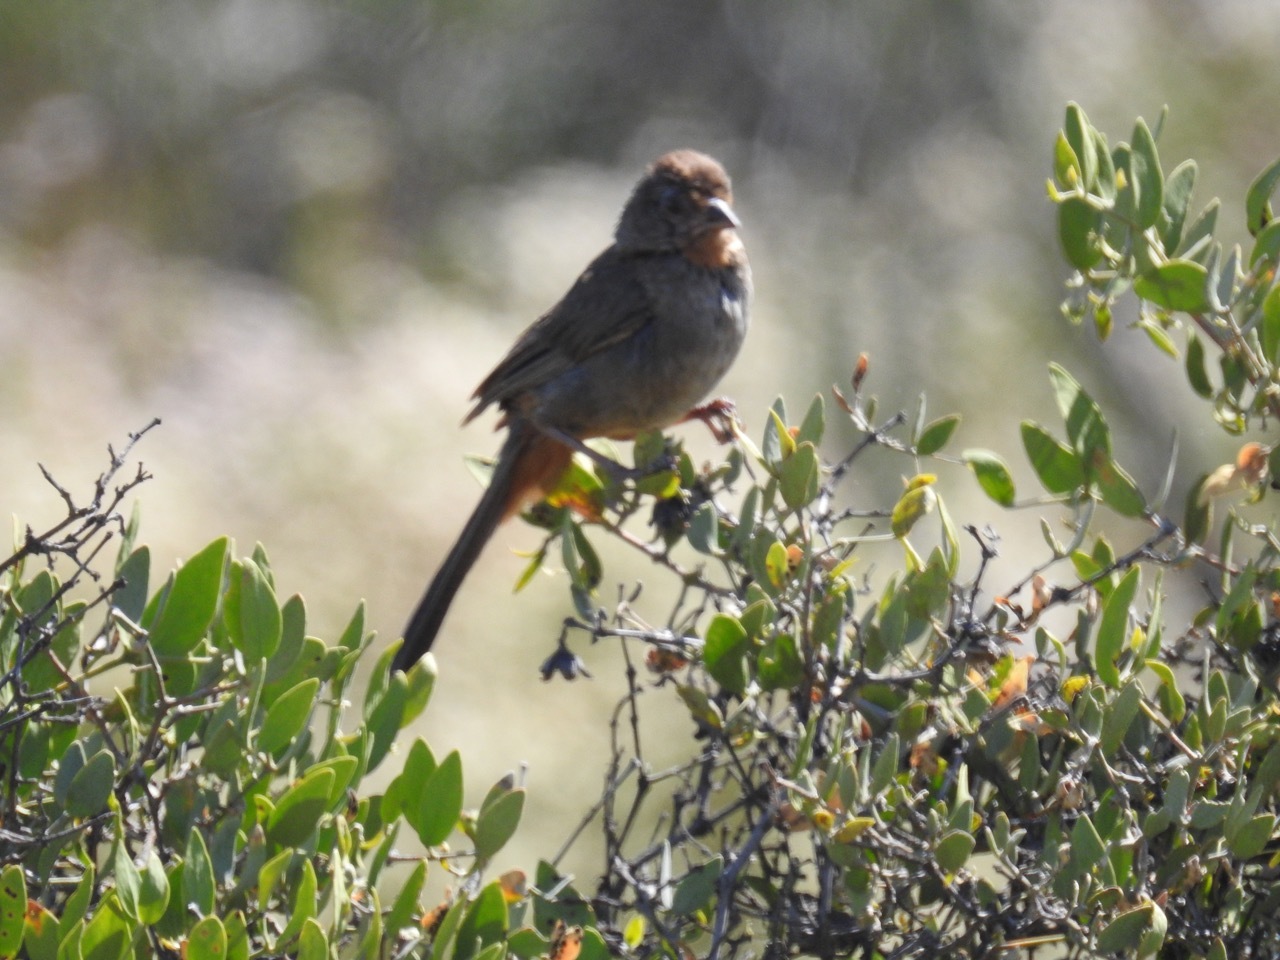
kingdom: Animalia
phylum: Chordata
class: Aves
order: Passeriformes
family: Passerellidae
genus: Melozone
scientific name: Melozone crissalis
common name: California towhee
